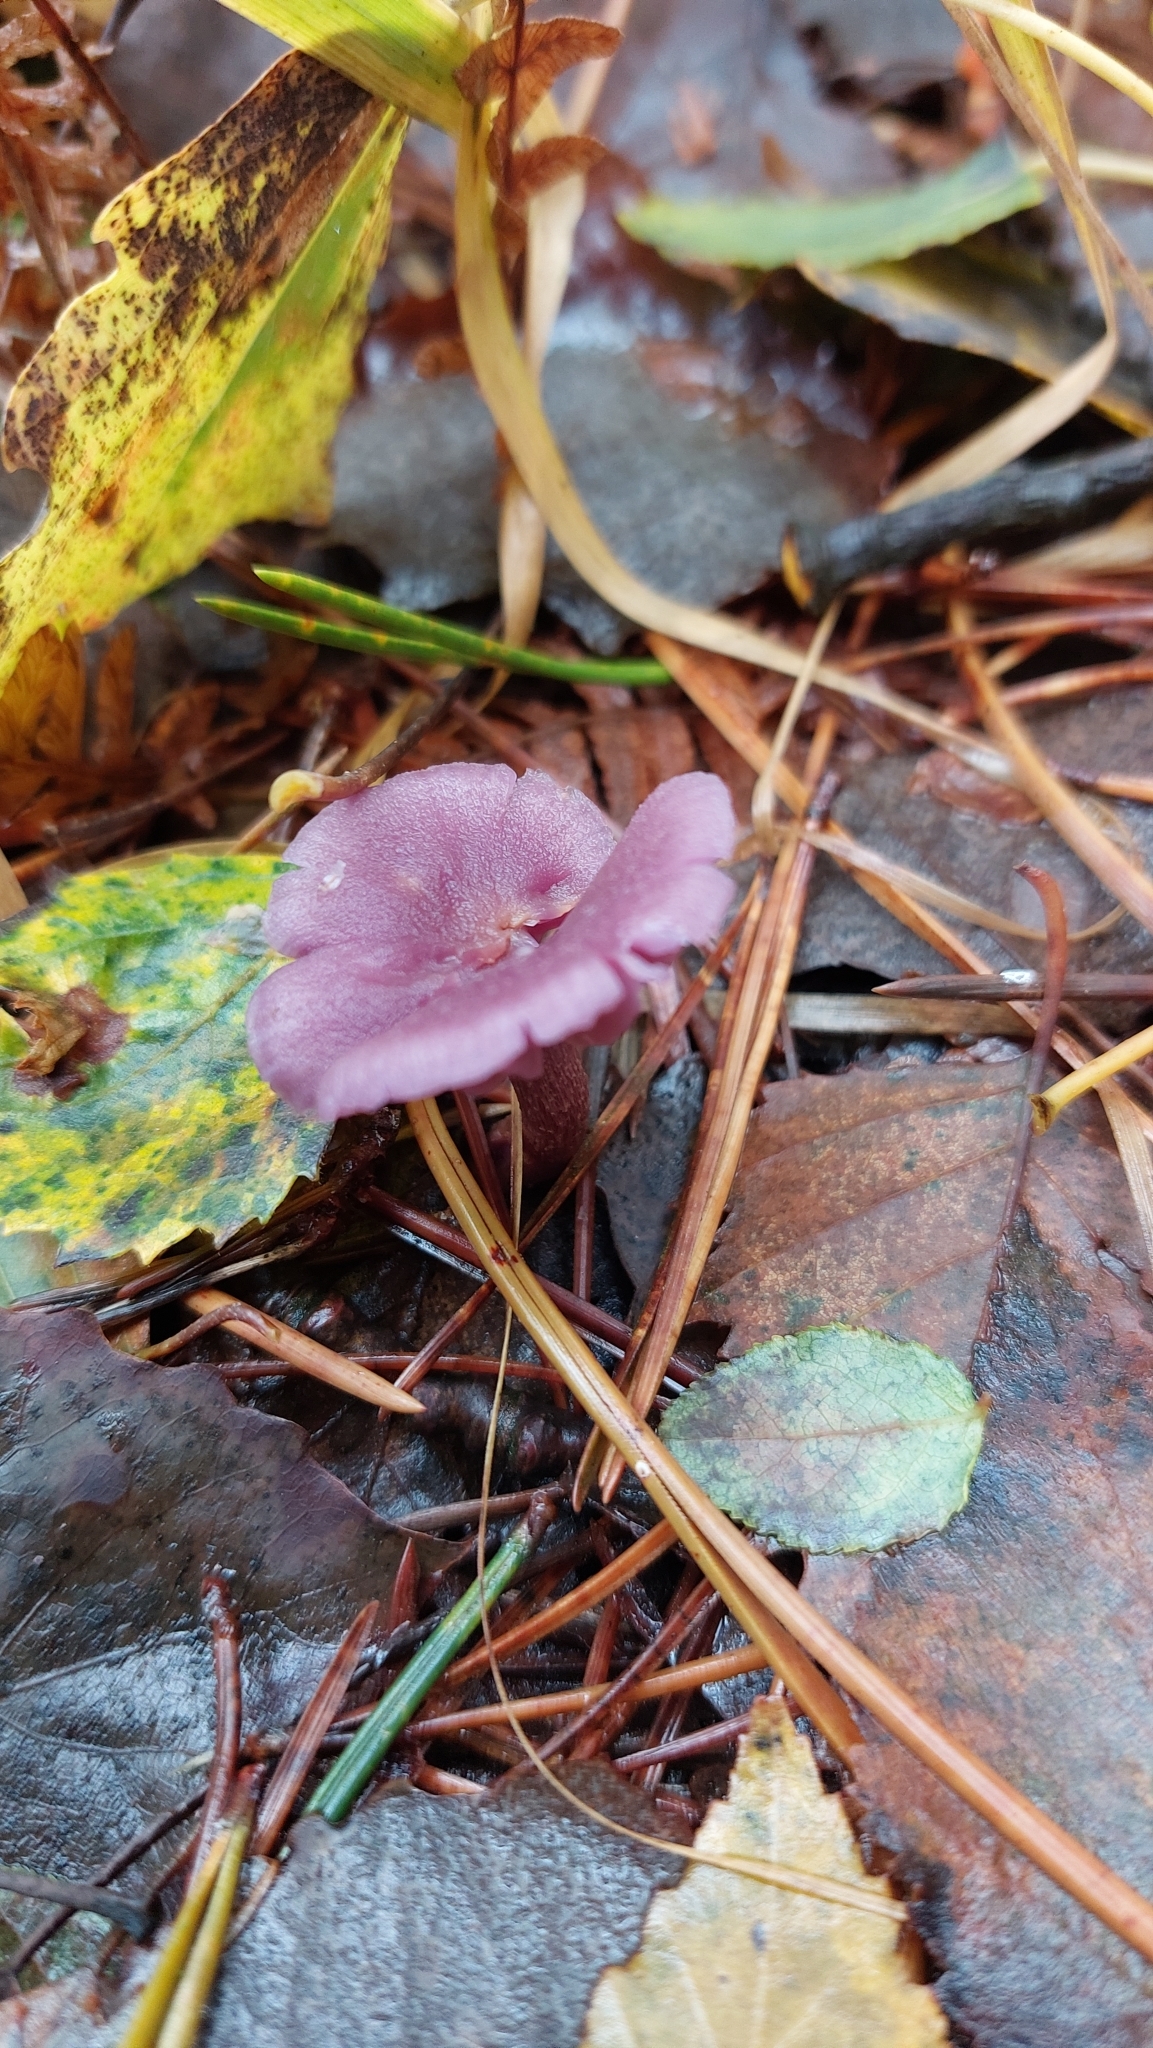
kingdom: Fungi
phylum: Basidiomycota
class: Agaricomycetes
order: Agaricales
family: Hydnangiaceae
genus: Laccaria
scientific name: Laccaria amethystina
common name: Amethyst deceiver
